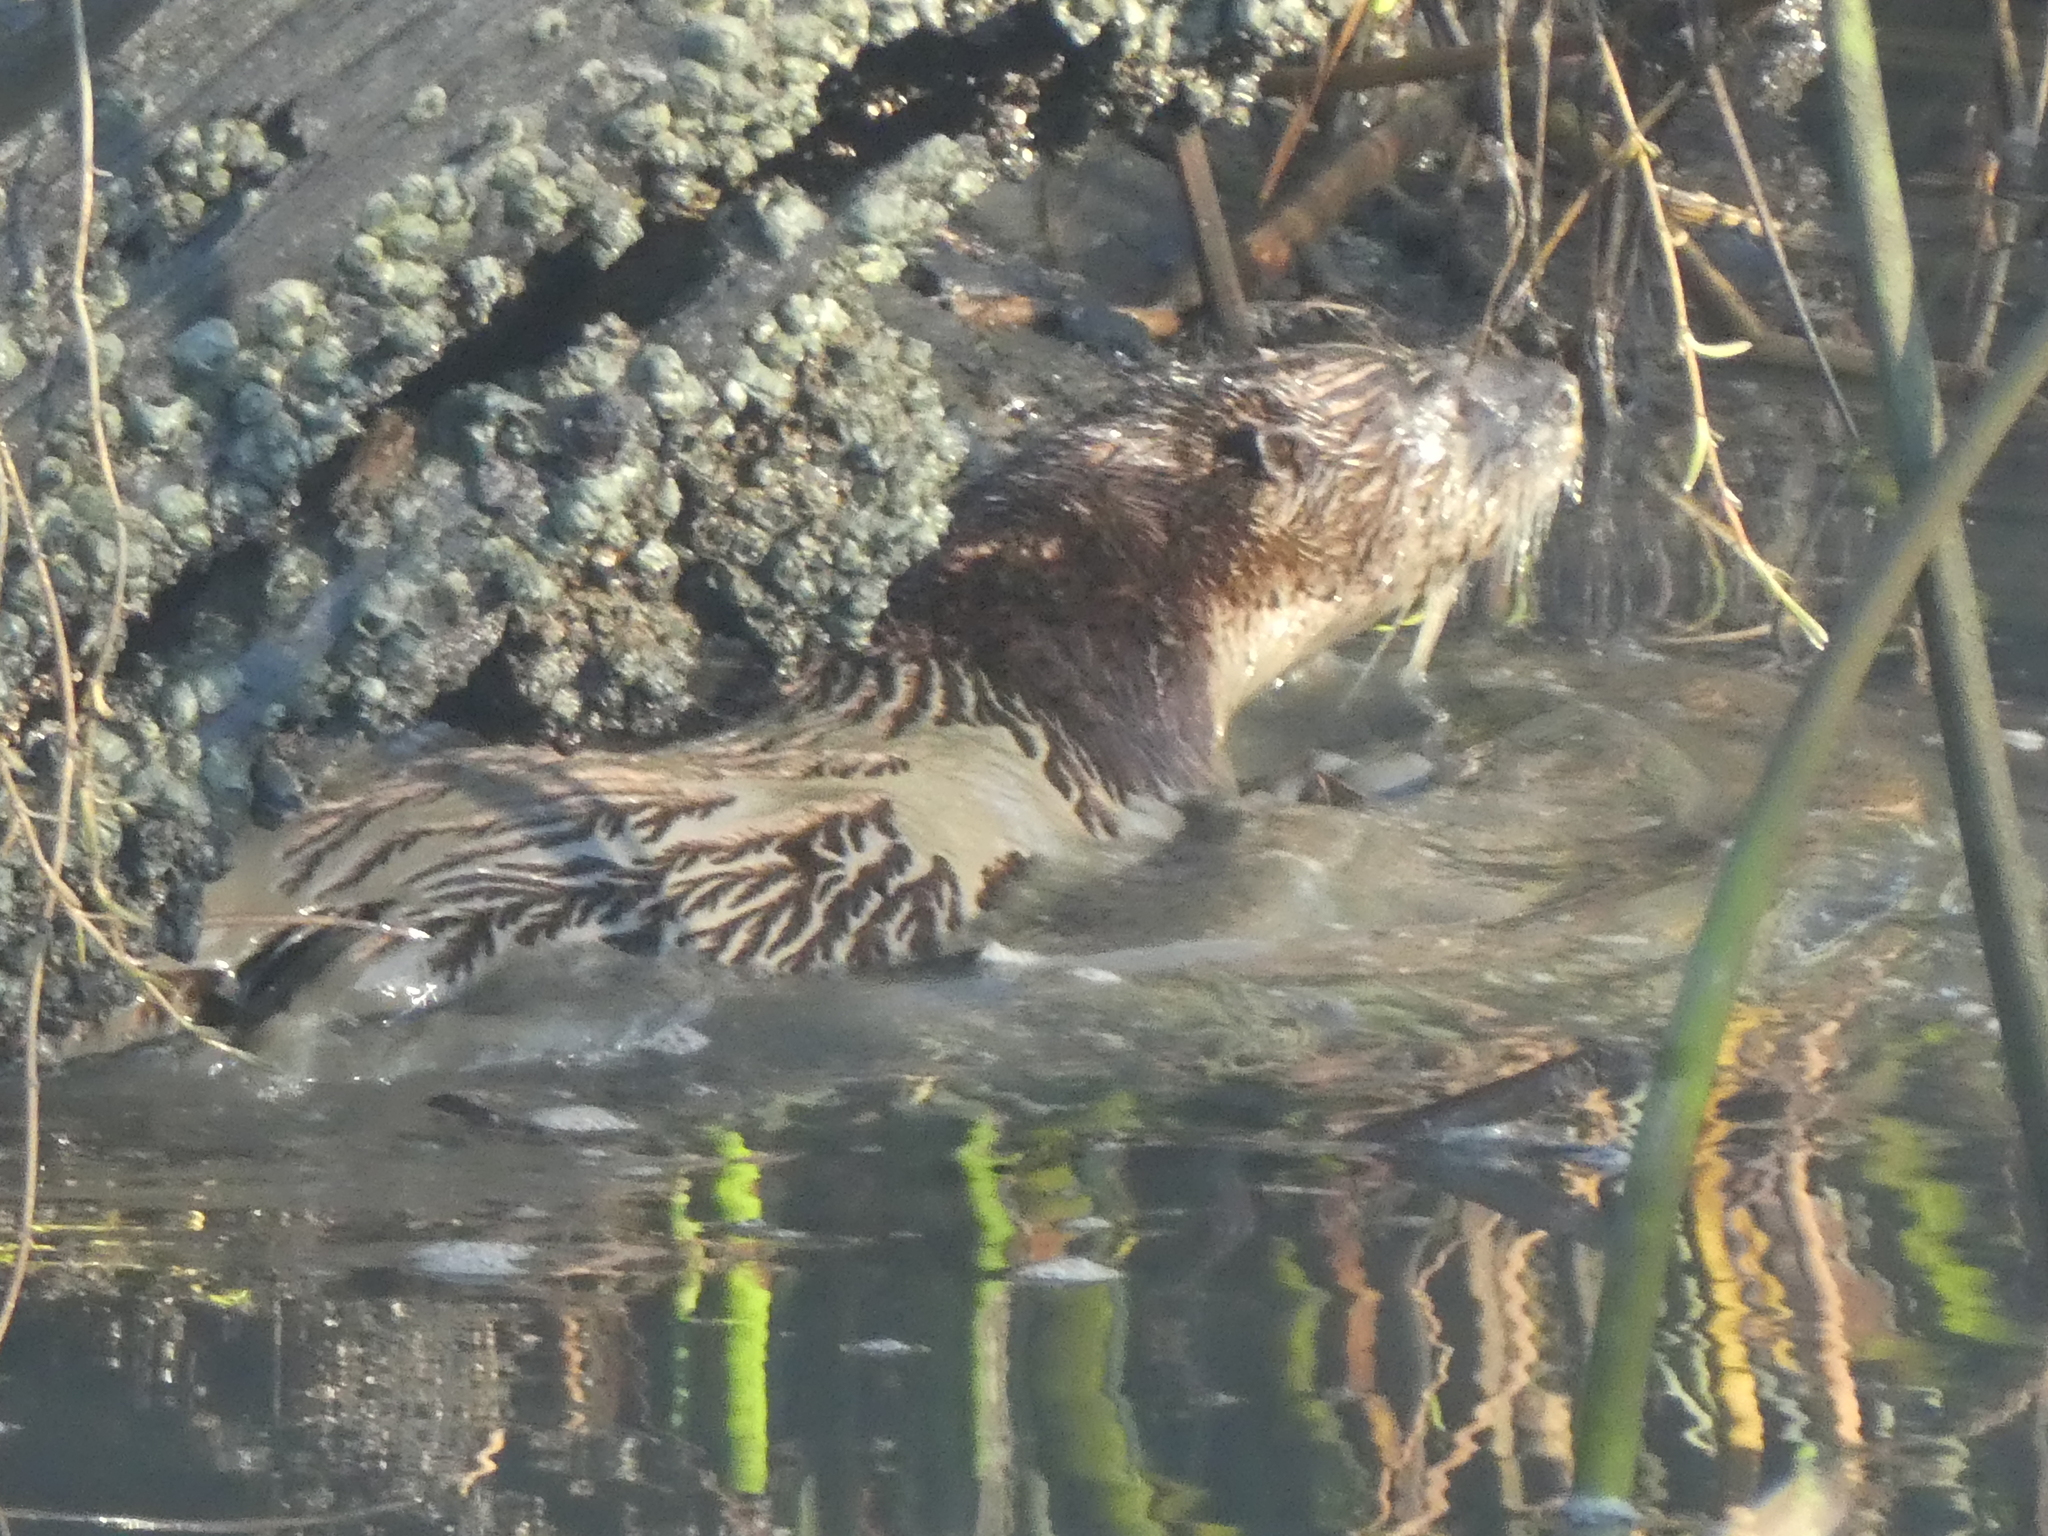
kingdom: Animalia
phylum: Chordata
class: Mammalia
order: Carnivora
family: Mustelidae
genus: Lontra
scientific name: Lontra canadensis
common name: North american river otter
